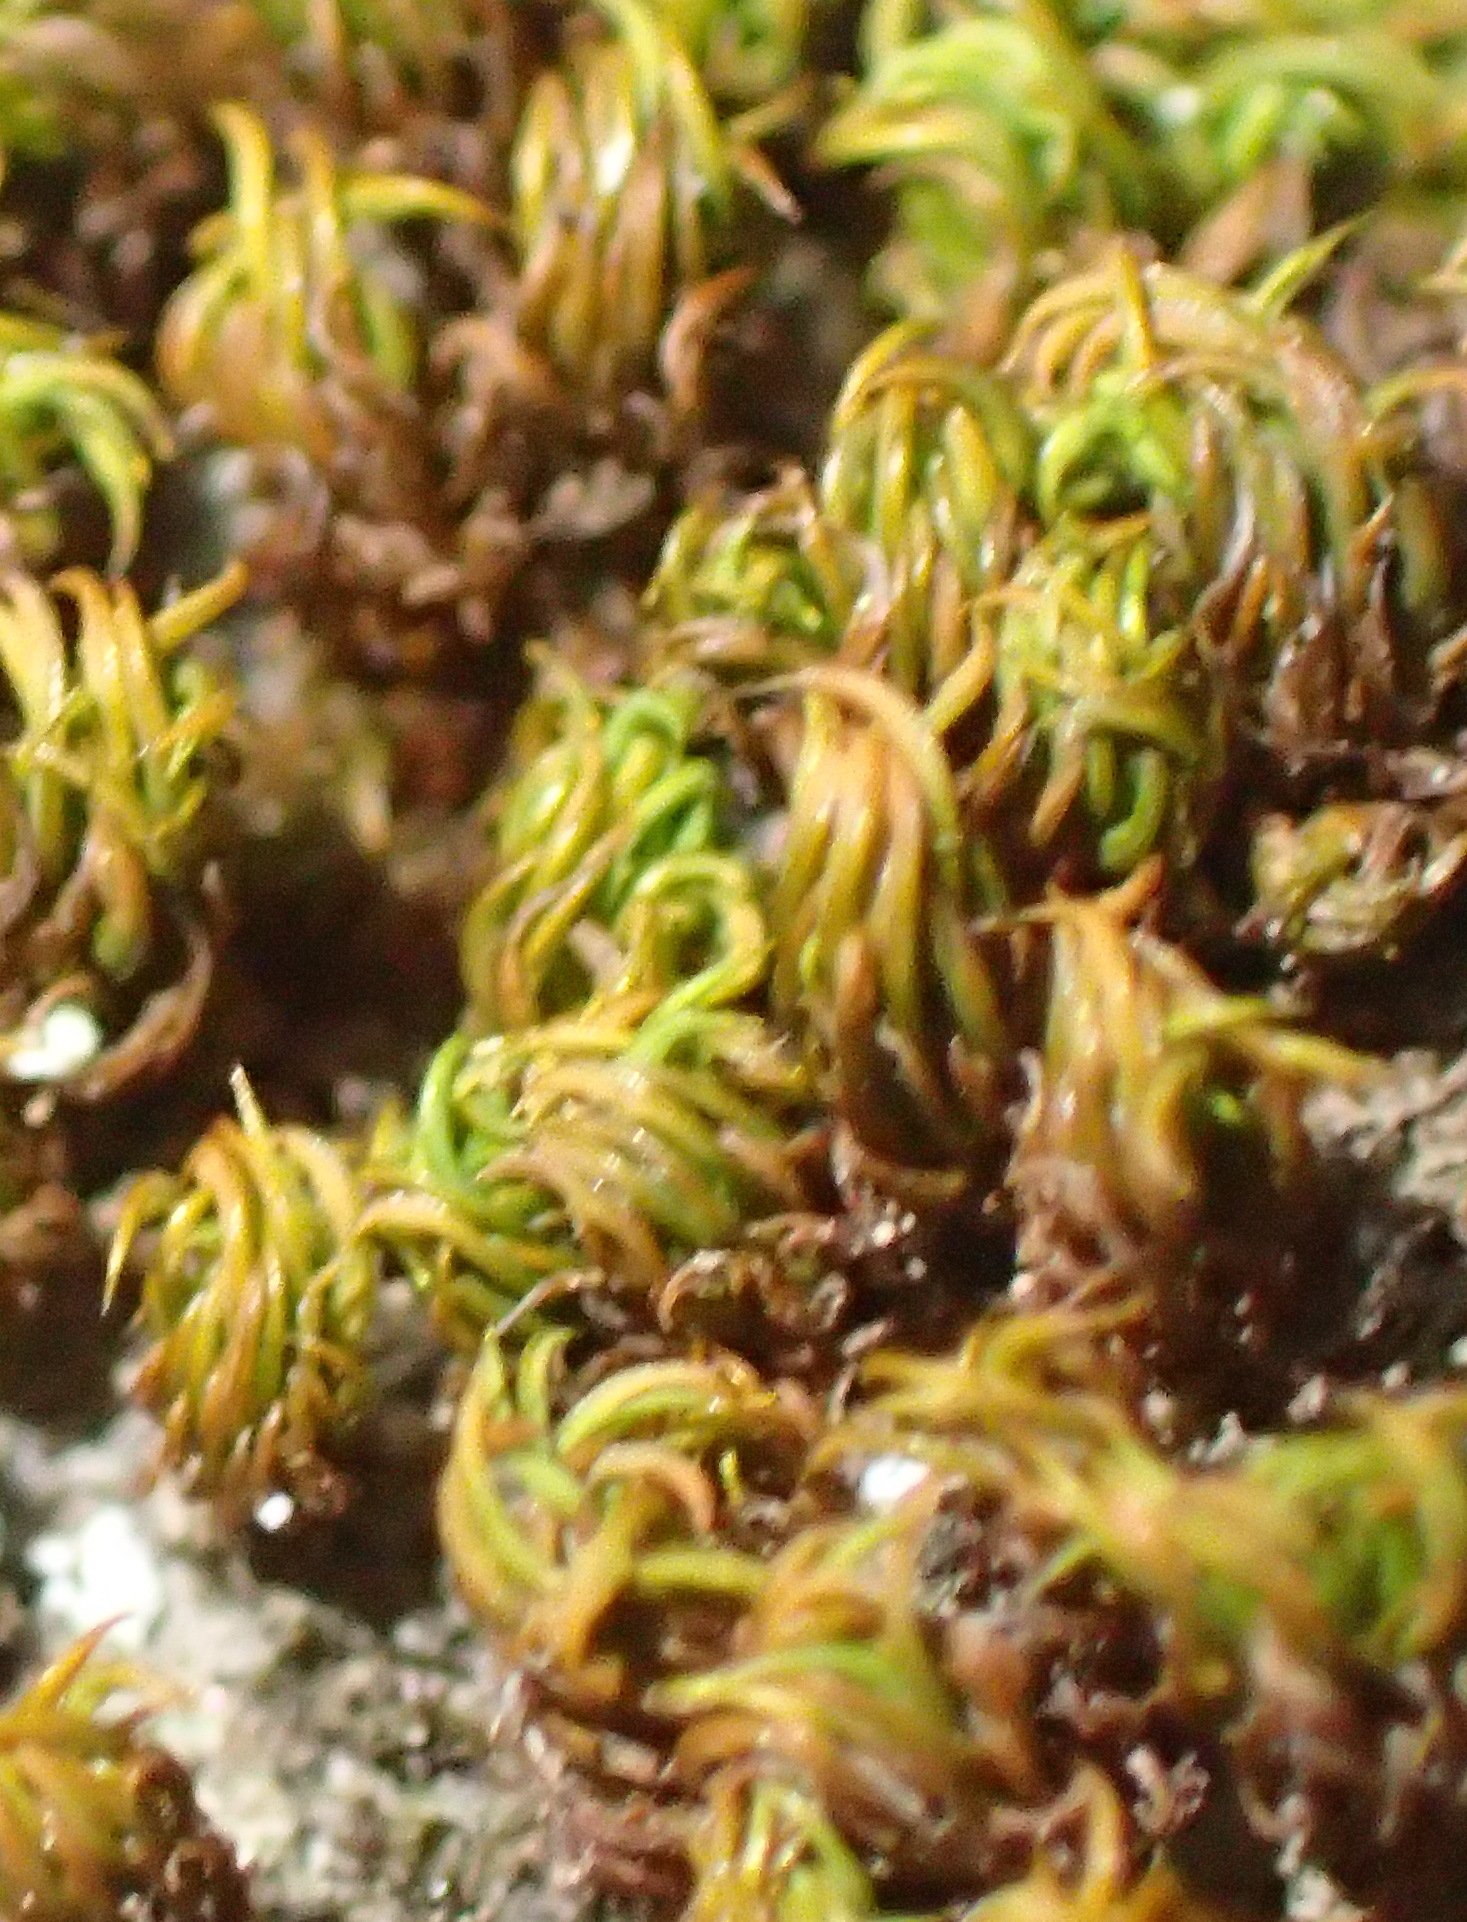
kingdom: Plantae
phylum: Bryophyta
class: Bryopsida
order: Pottiales
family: Pottiaceae
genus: Trichostomum
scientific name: Trichostomum brachydontium
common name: Variable crisp-moss
